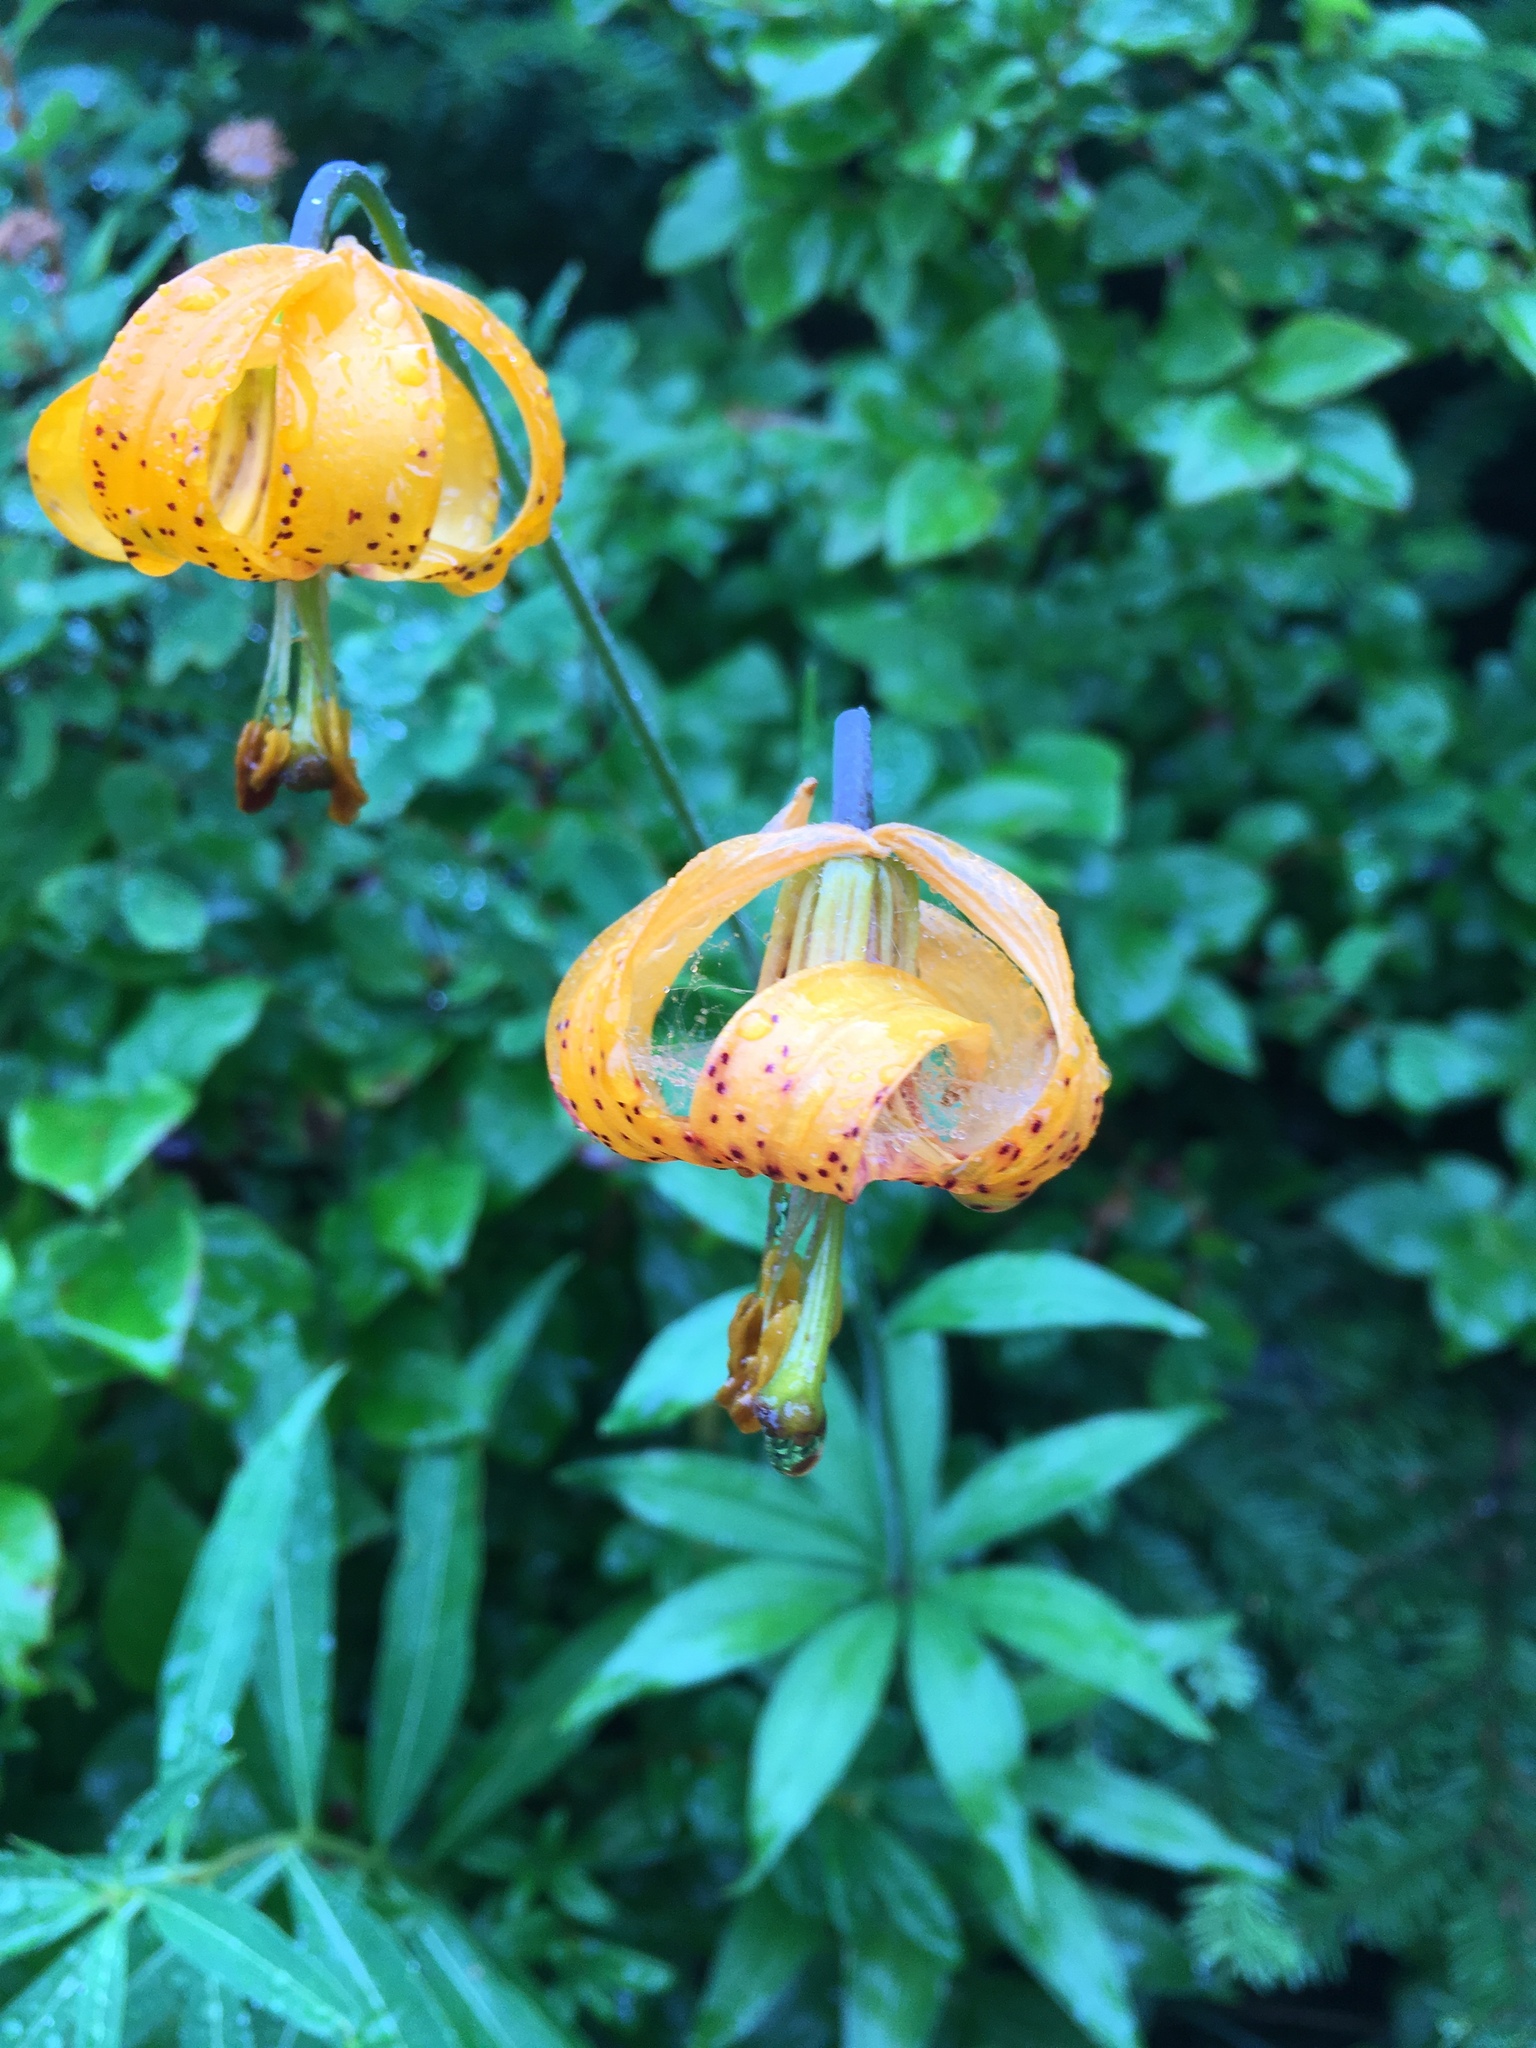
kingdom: Plantae
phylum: Tracheophyta
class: Liliopsida
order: Liliales
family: Liliaceae
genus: Lilium
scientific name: Lilium columbianum
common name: Columbia lily
